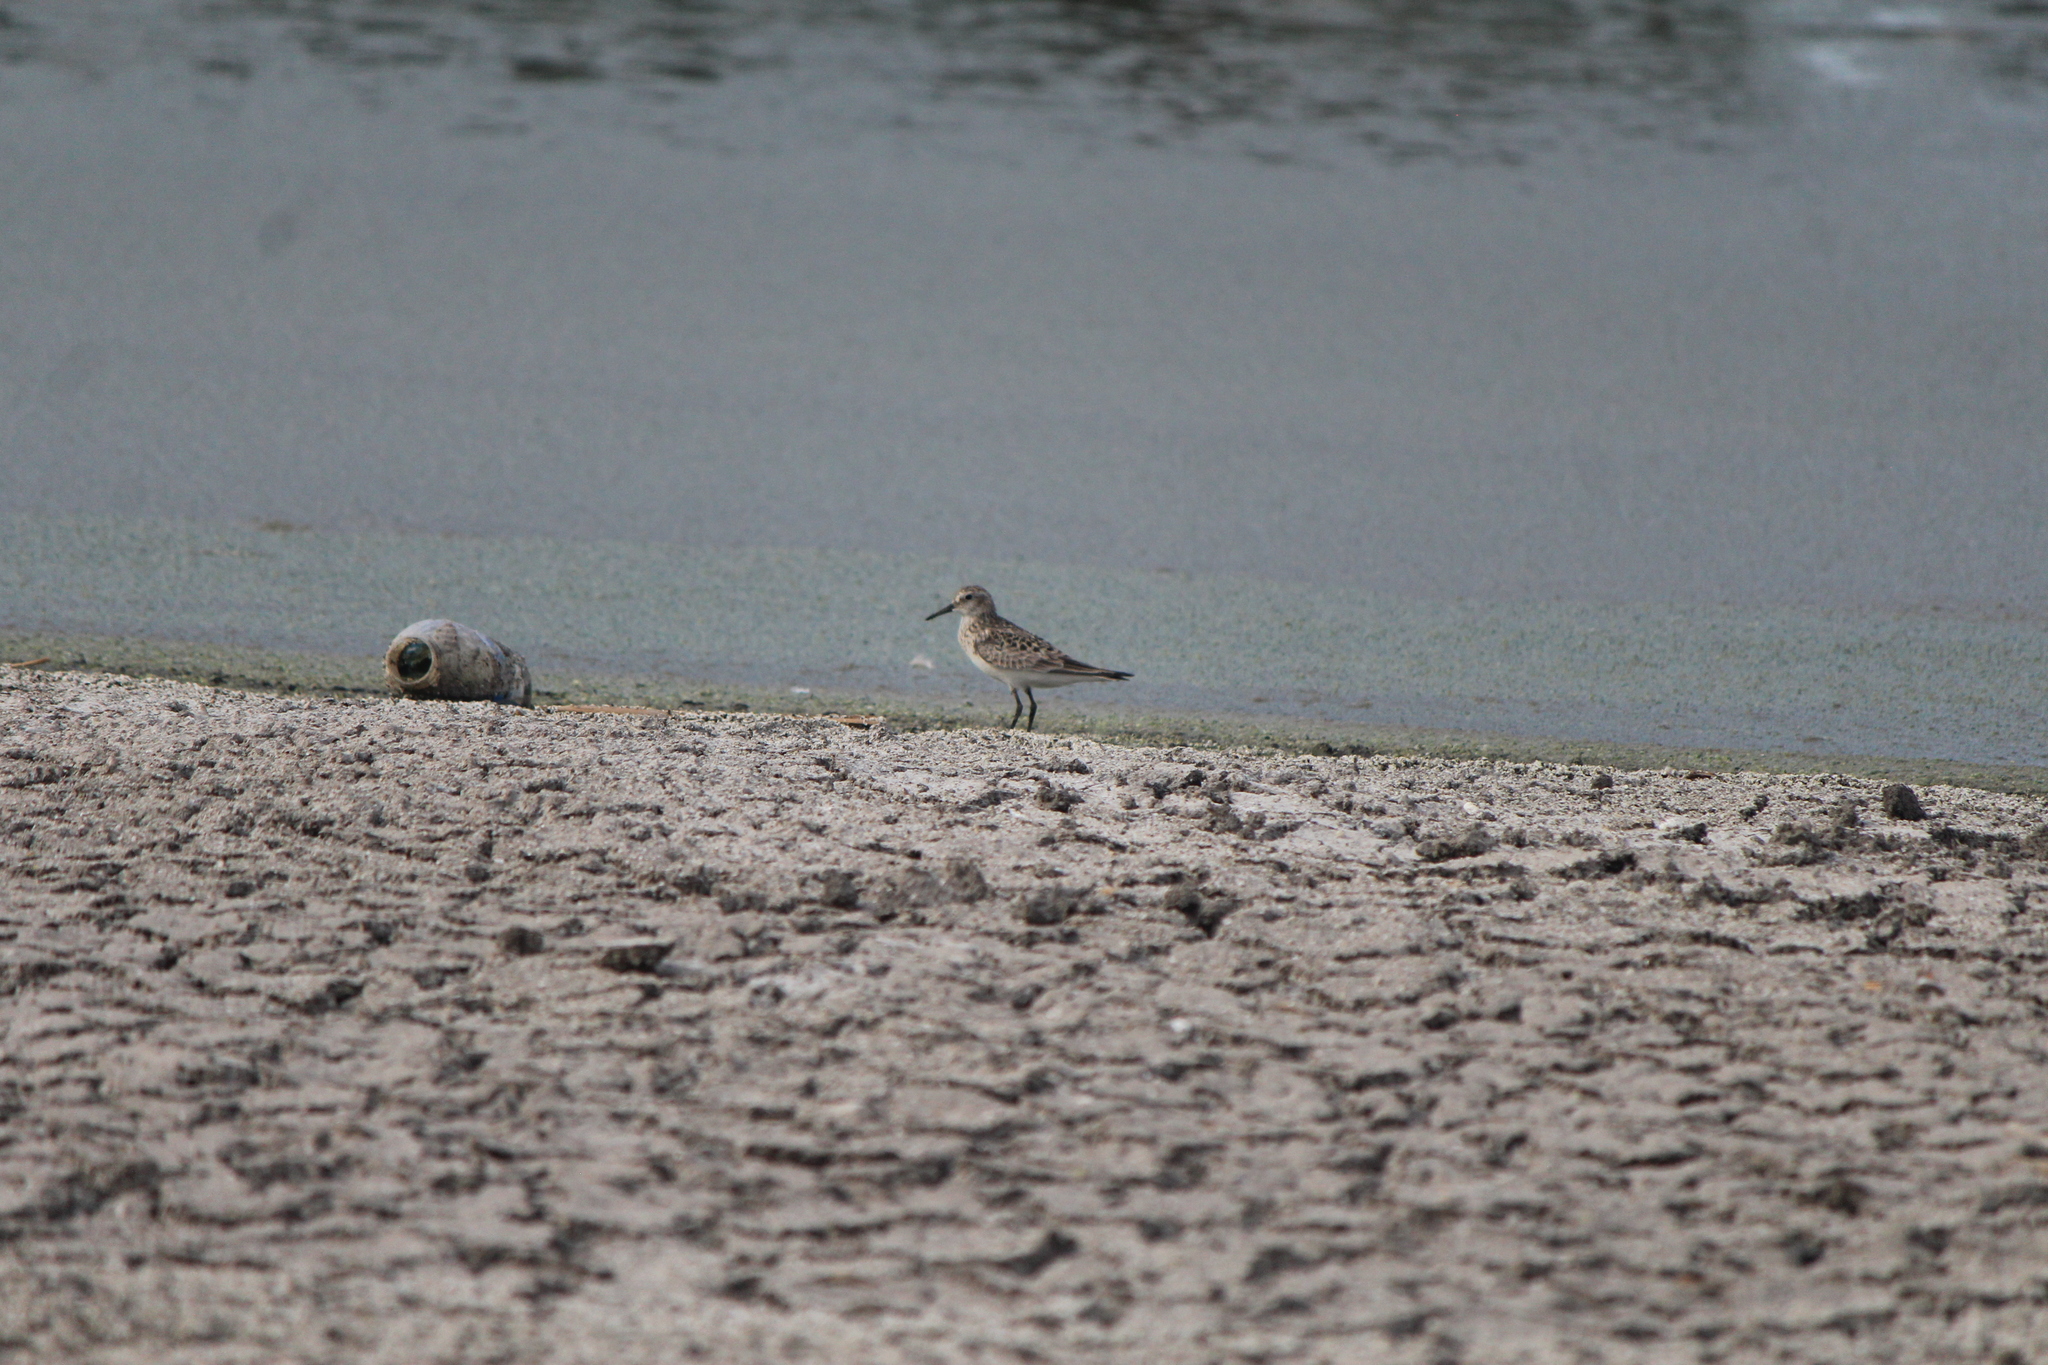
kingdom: Animalia
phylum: Chordata
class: Aves
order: Charadriiformes
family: Scolopacidae
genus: Calidris
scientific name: Calidris bairdii
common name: Baird's sandpiper
